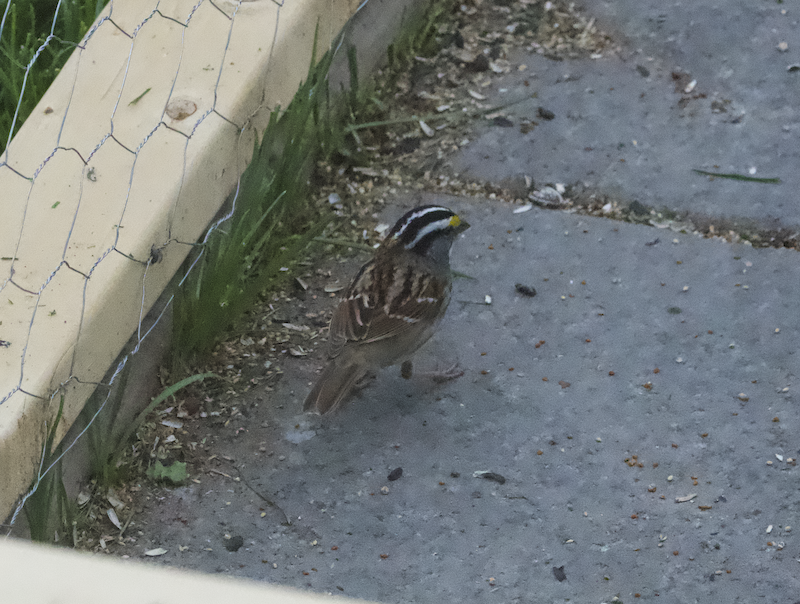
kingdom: Animalia
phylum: Chordata
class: Aves
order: Passeriformes
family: Passerellidae
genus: Zonotrichia
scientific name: Zonotrichia albicollis
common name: White-throated sparrow
